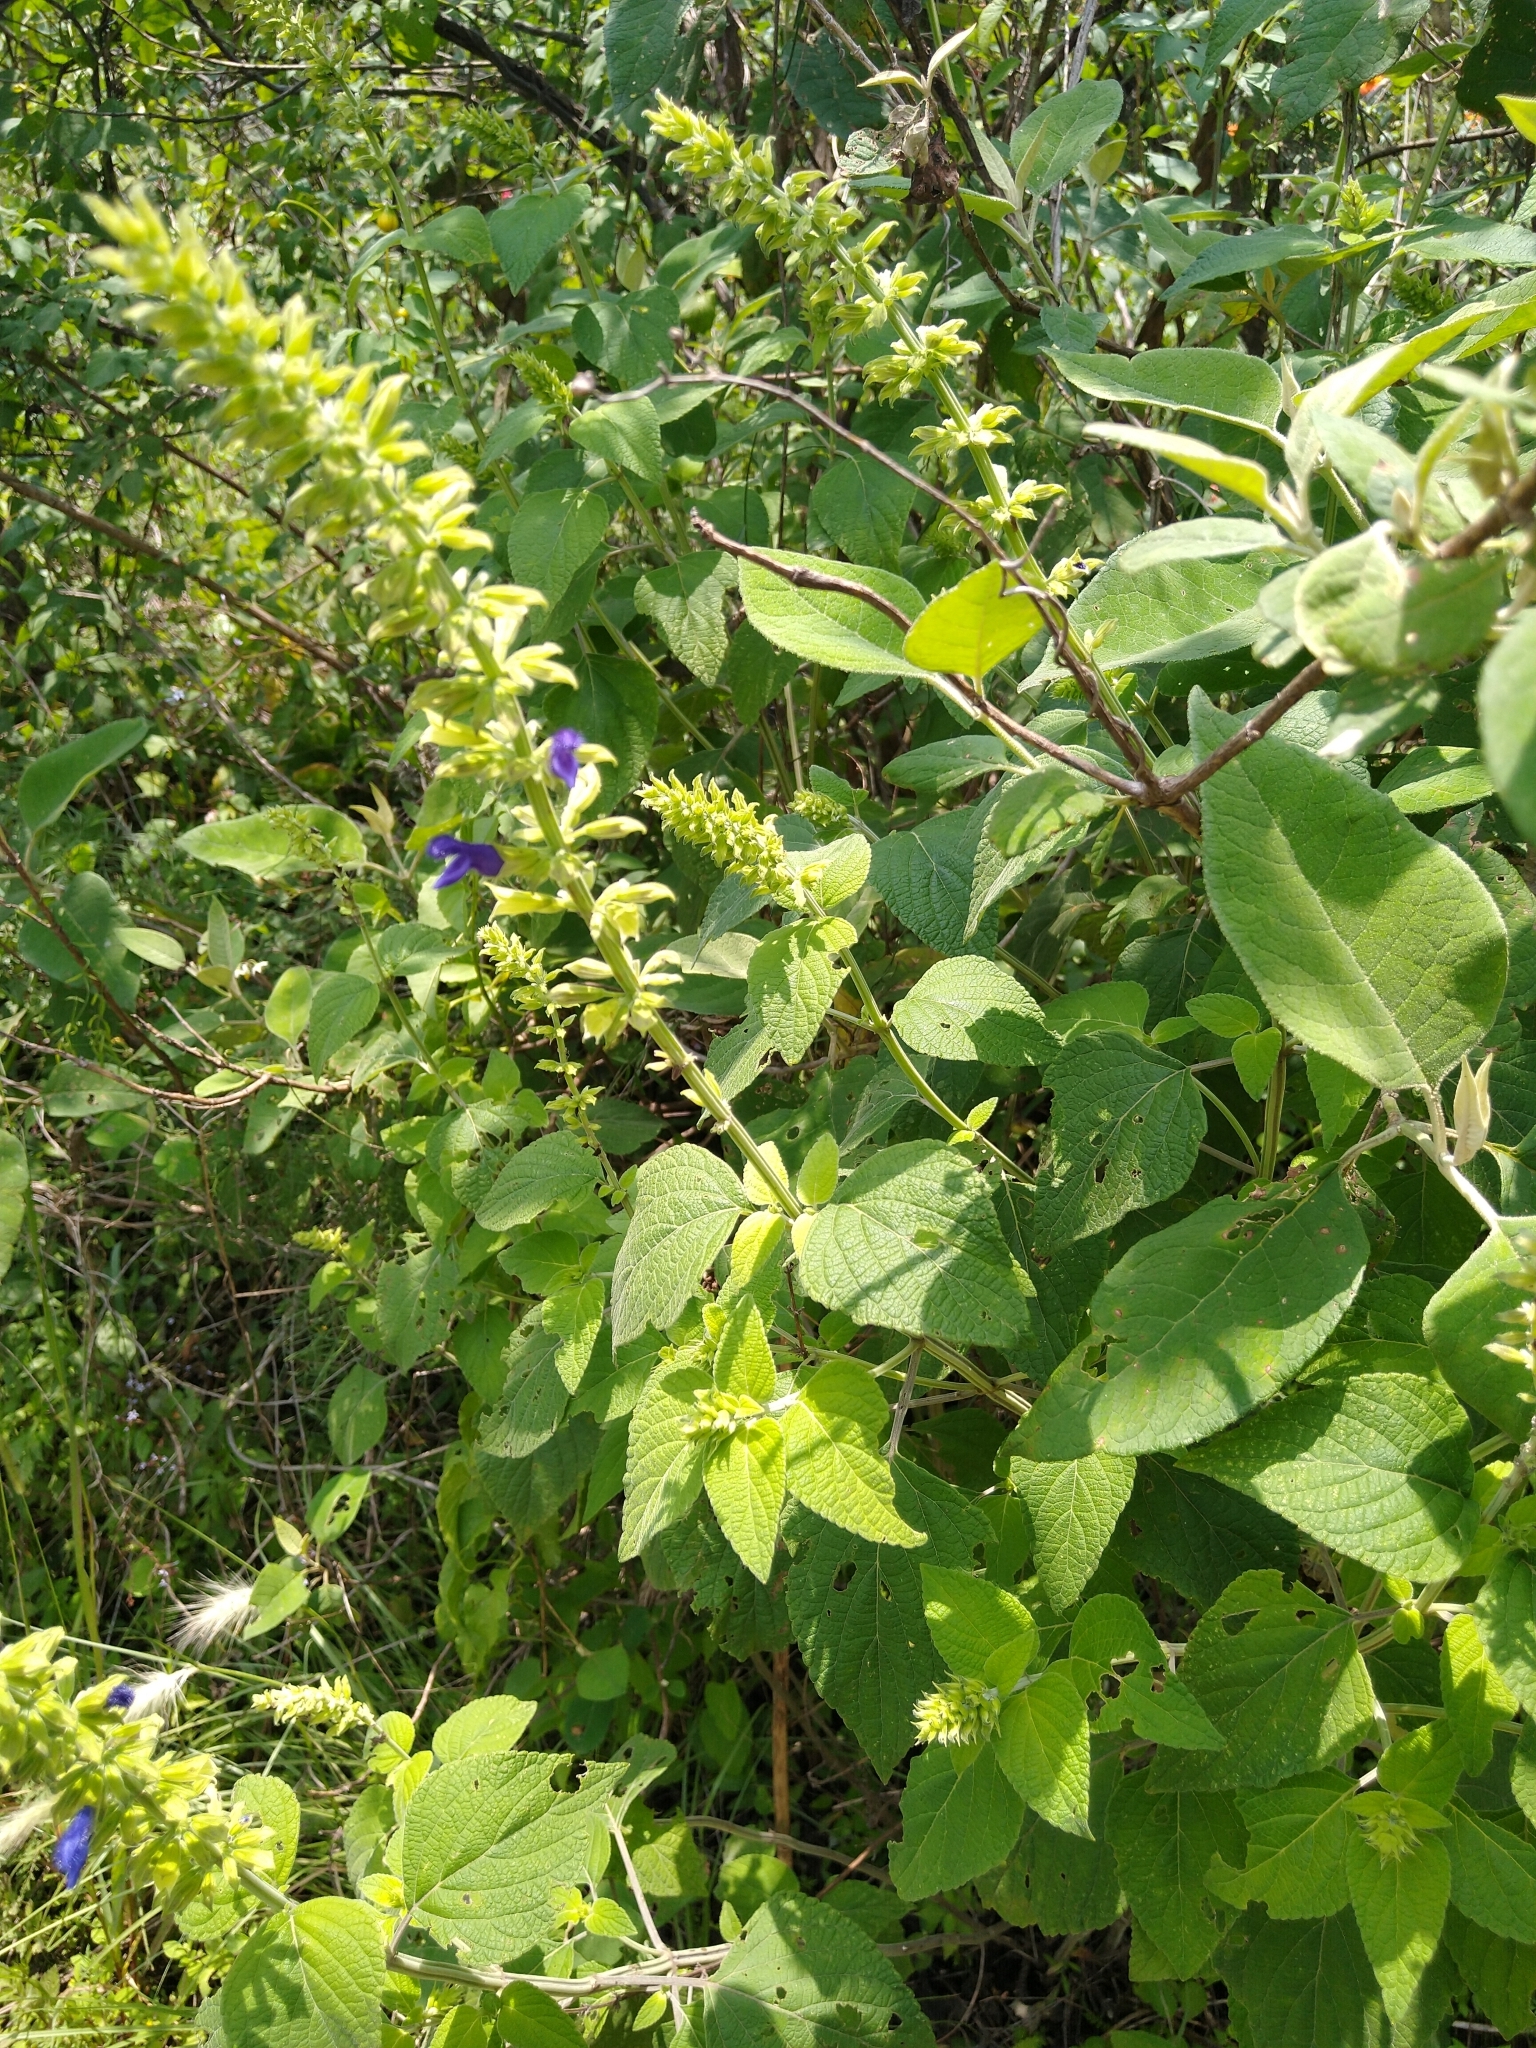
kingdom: Plantae
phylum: Tracheophyta
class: Magnoliopsida
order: Lamiales
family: Lamiaceae
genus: Salvia
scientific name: Salvia mexicana
